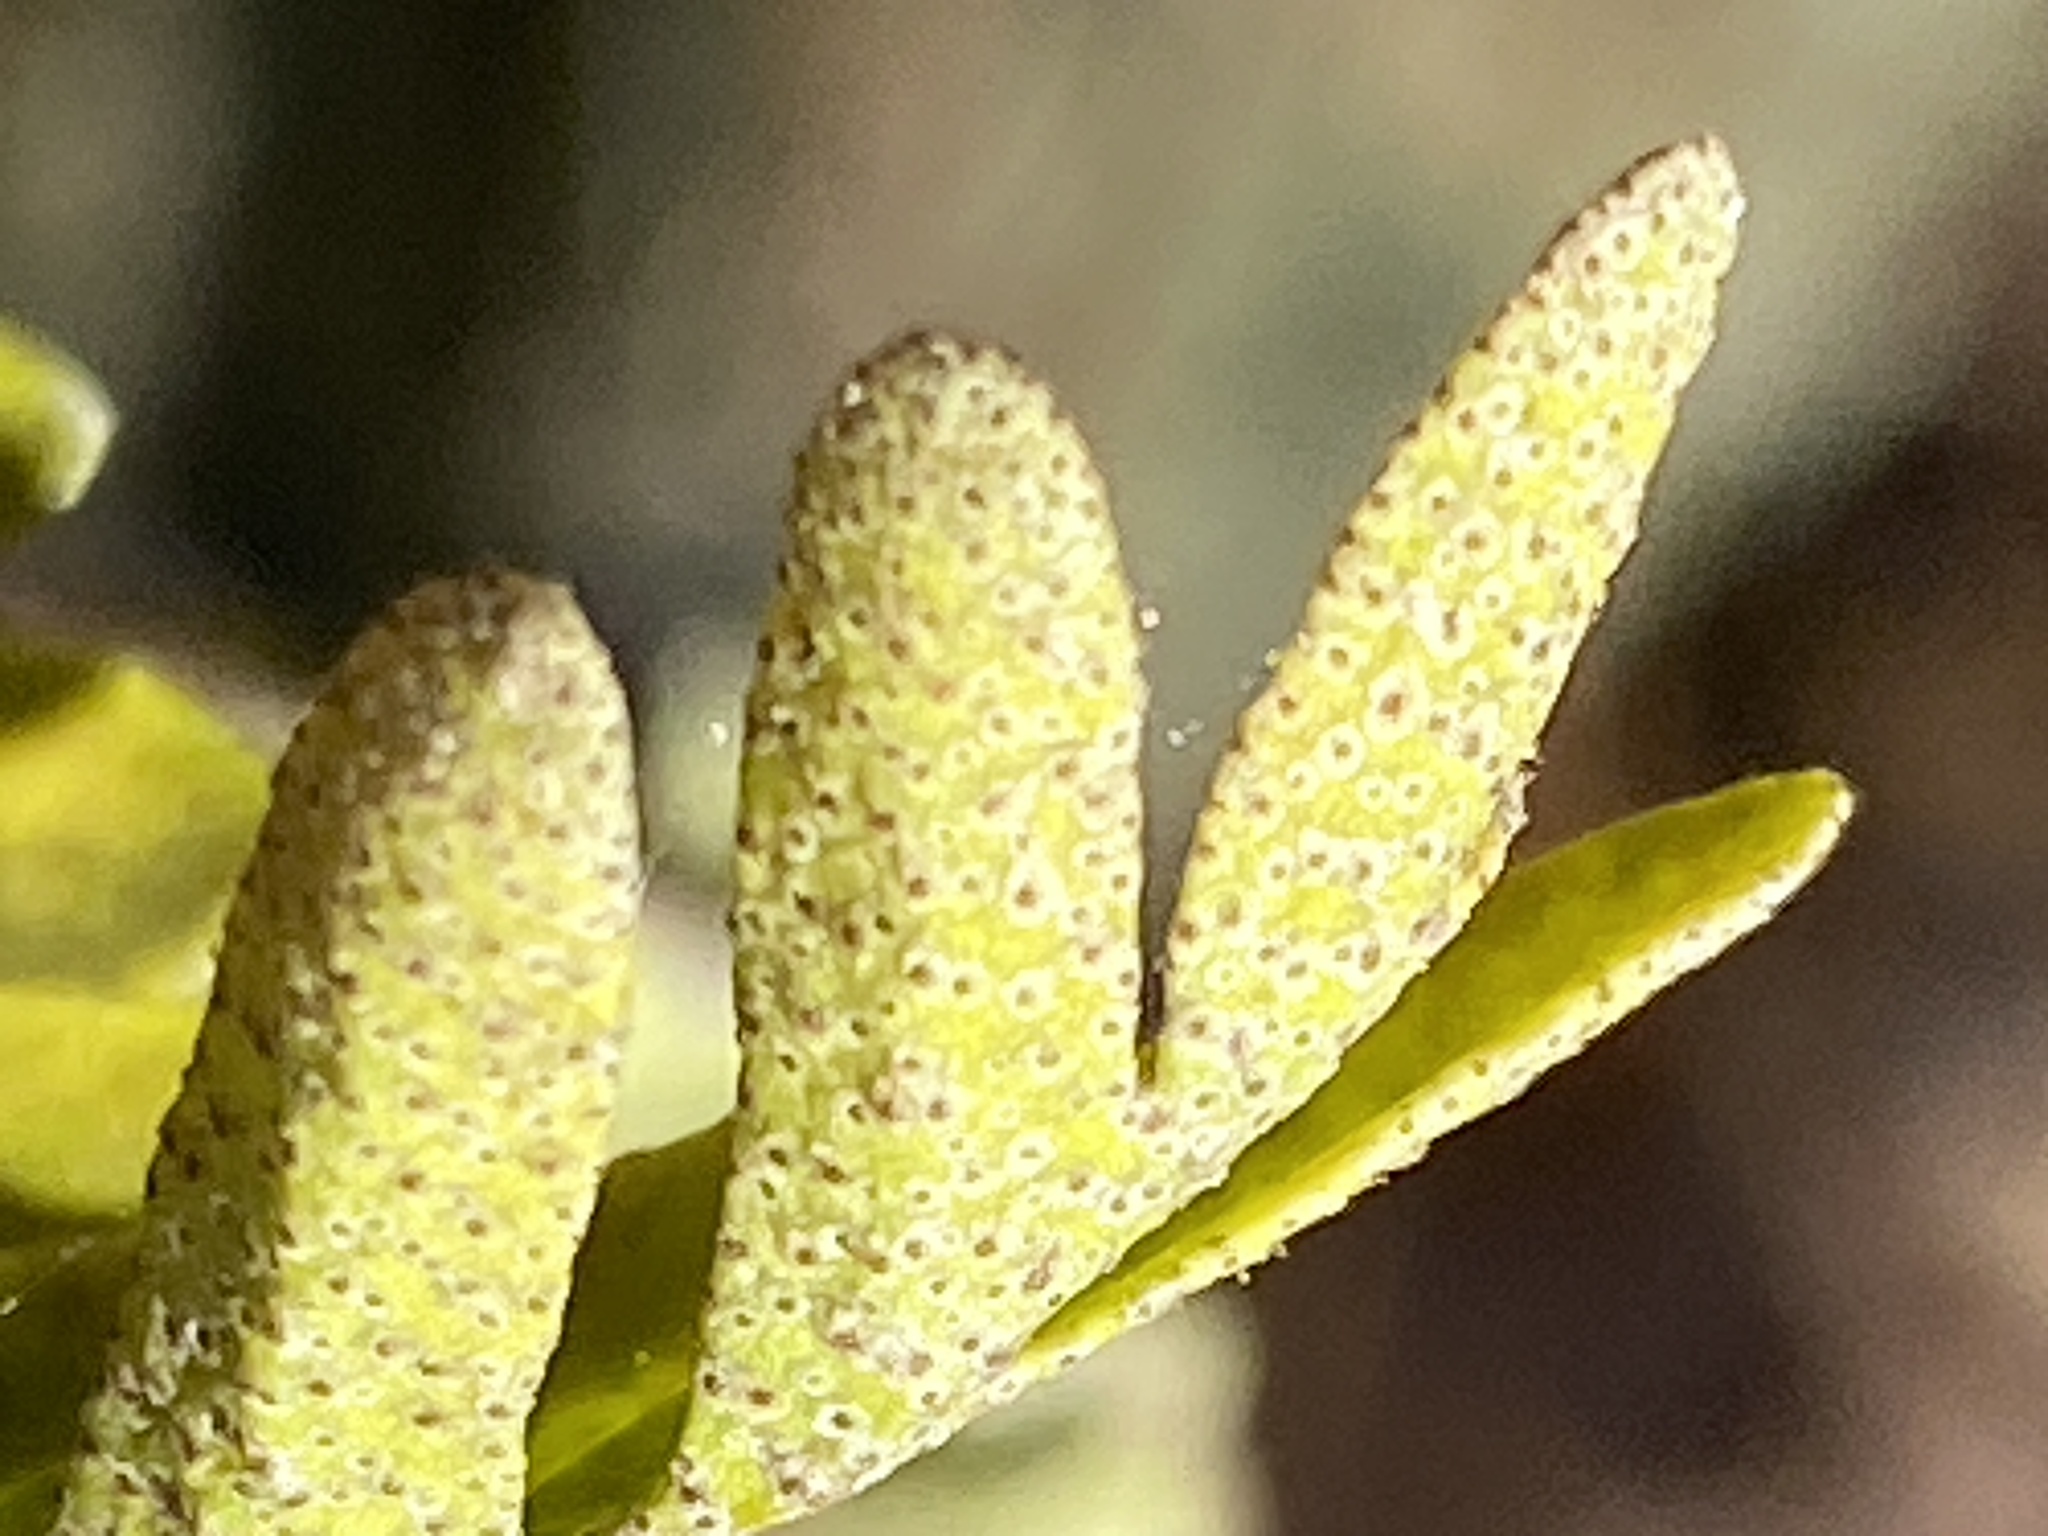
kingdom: Plantae
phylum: Tracheophyta
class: Polypodiopsida
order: Polypodiales
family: Polypodiaceae
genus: Pleopeltis
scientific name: Pleopeltis michauxiana
